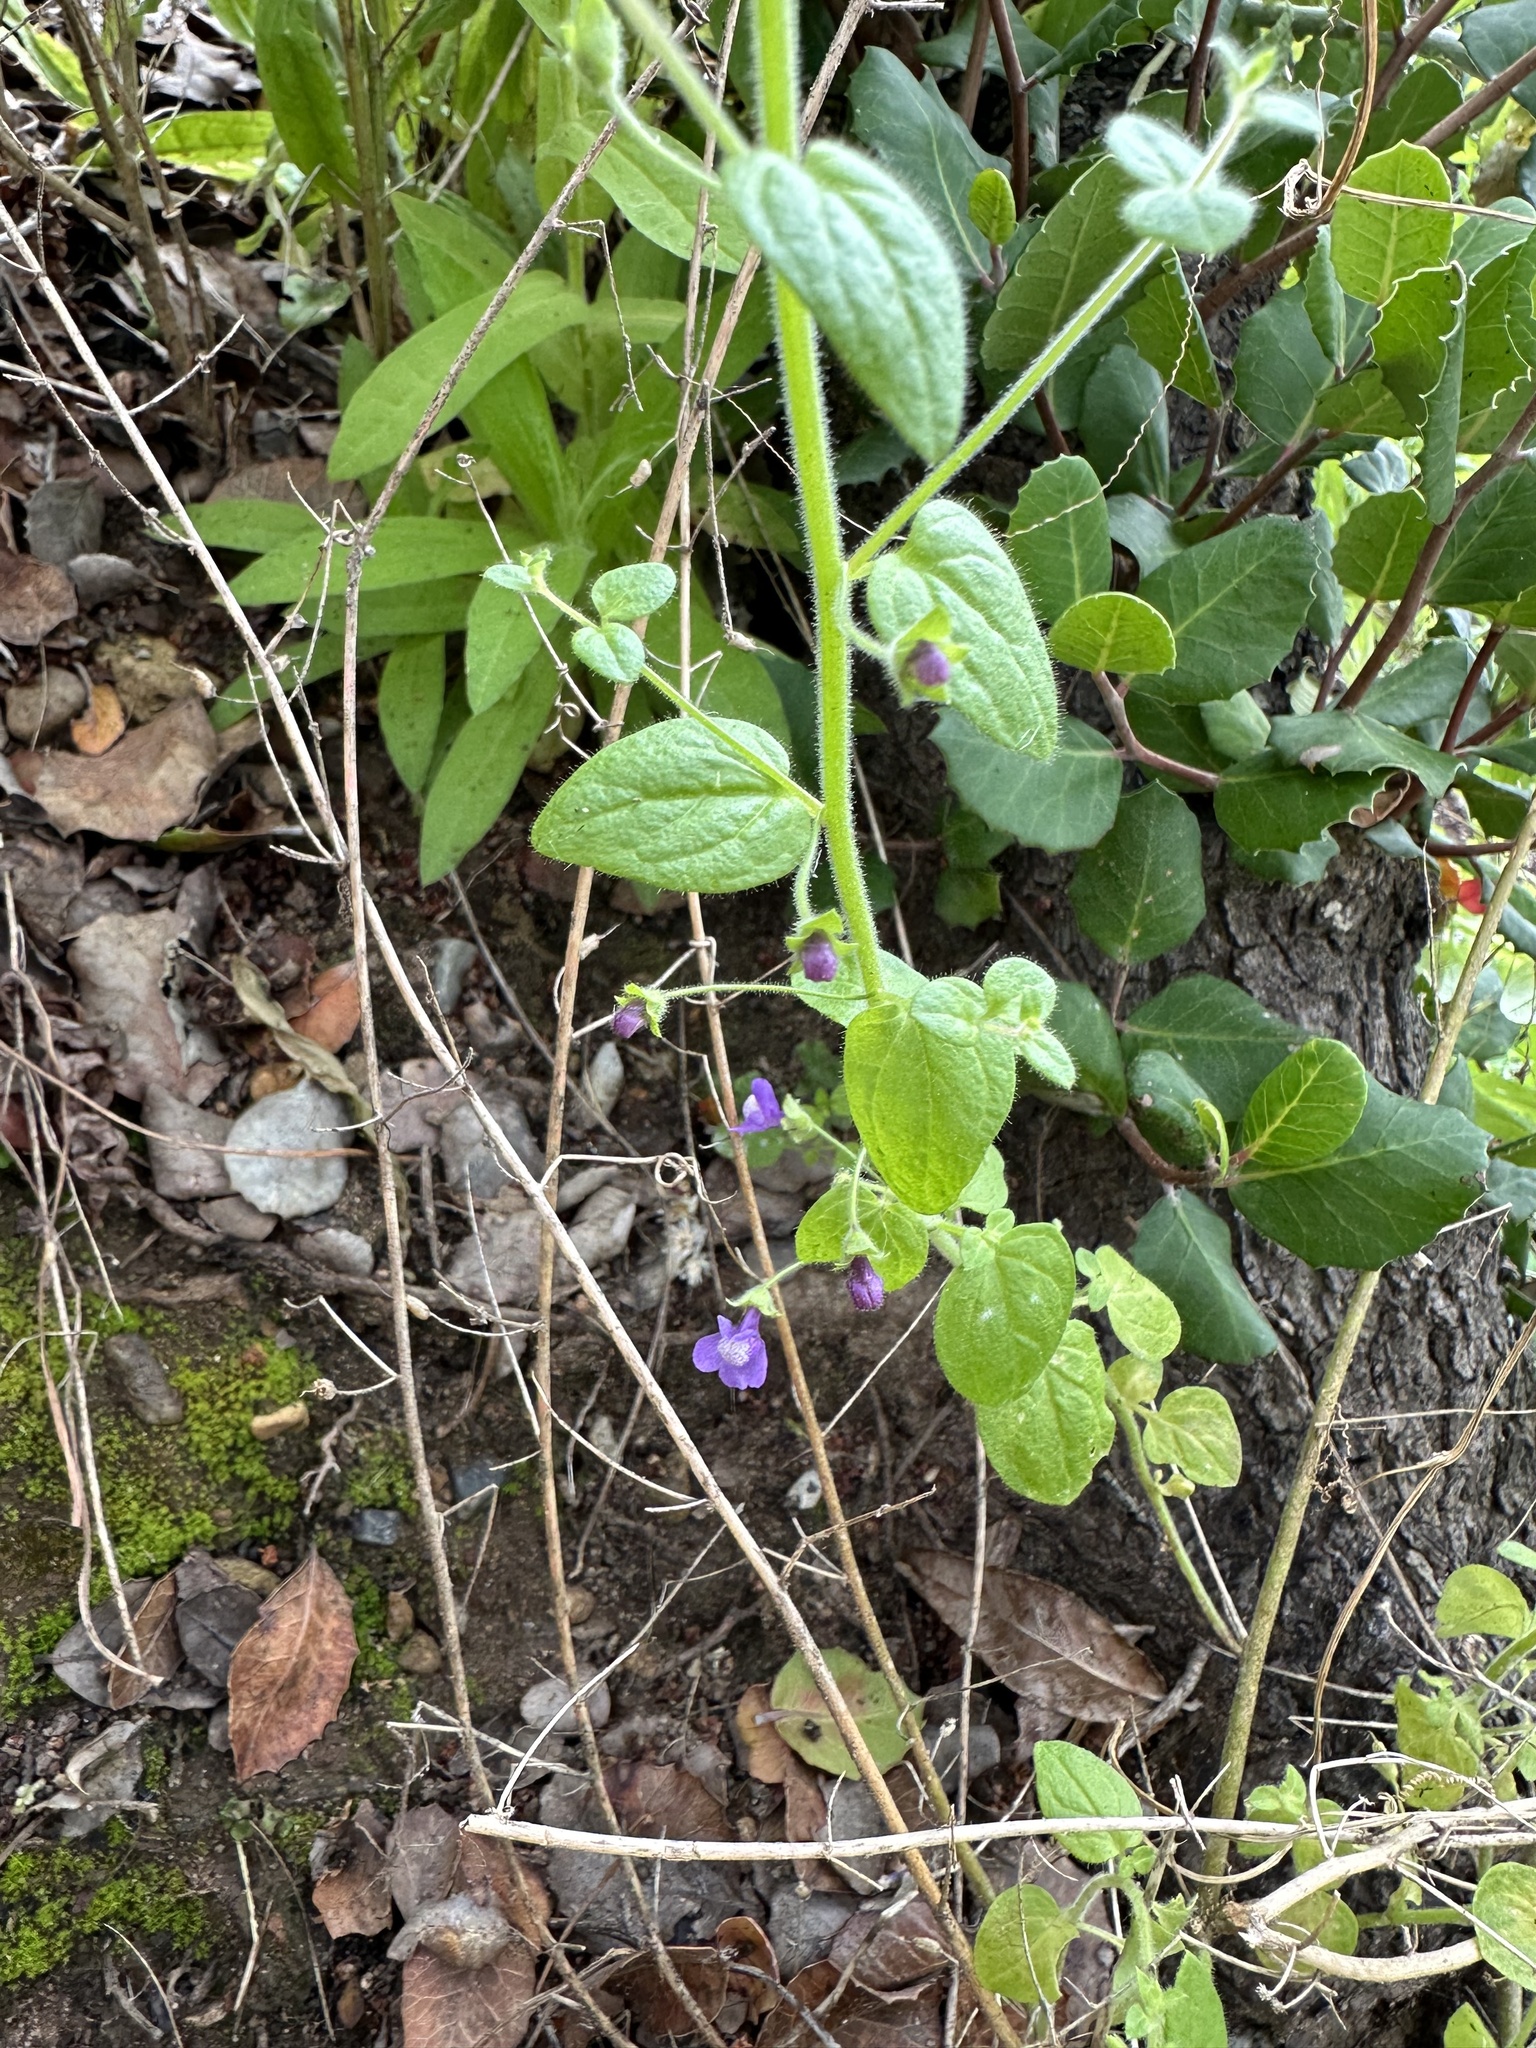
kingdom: Plantae
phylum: Tracheophyta
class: Magnoliopsida
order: Lamiales
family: Plantaginaceae
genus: Sairocarpus
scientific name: Sairocarpus nuttallianus
